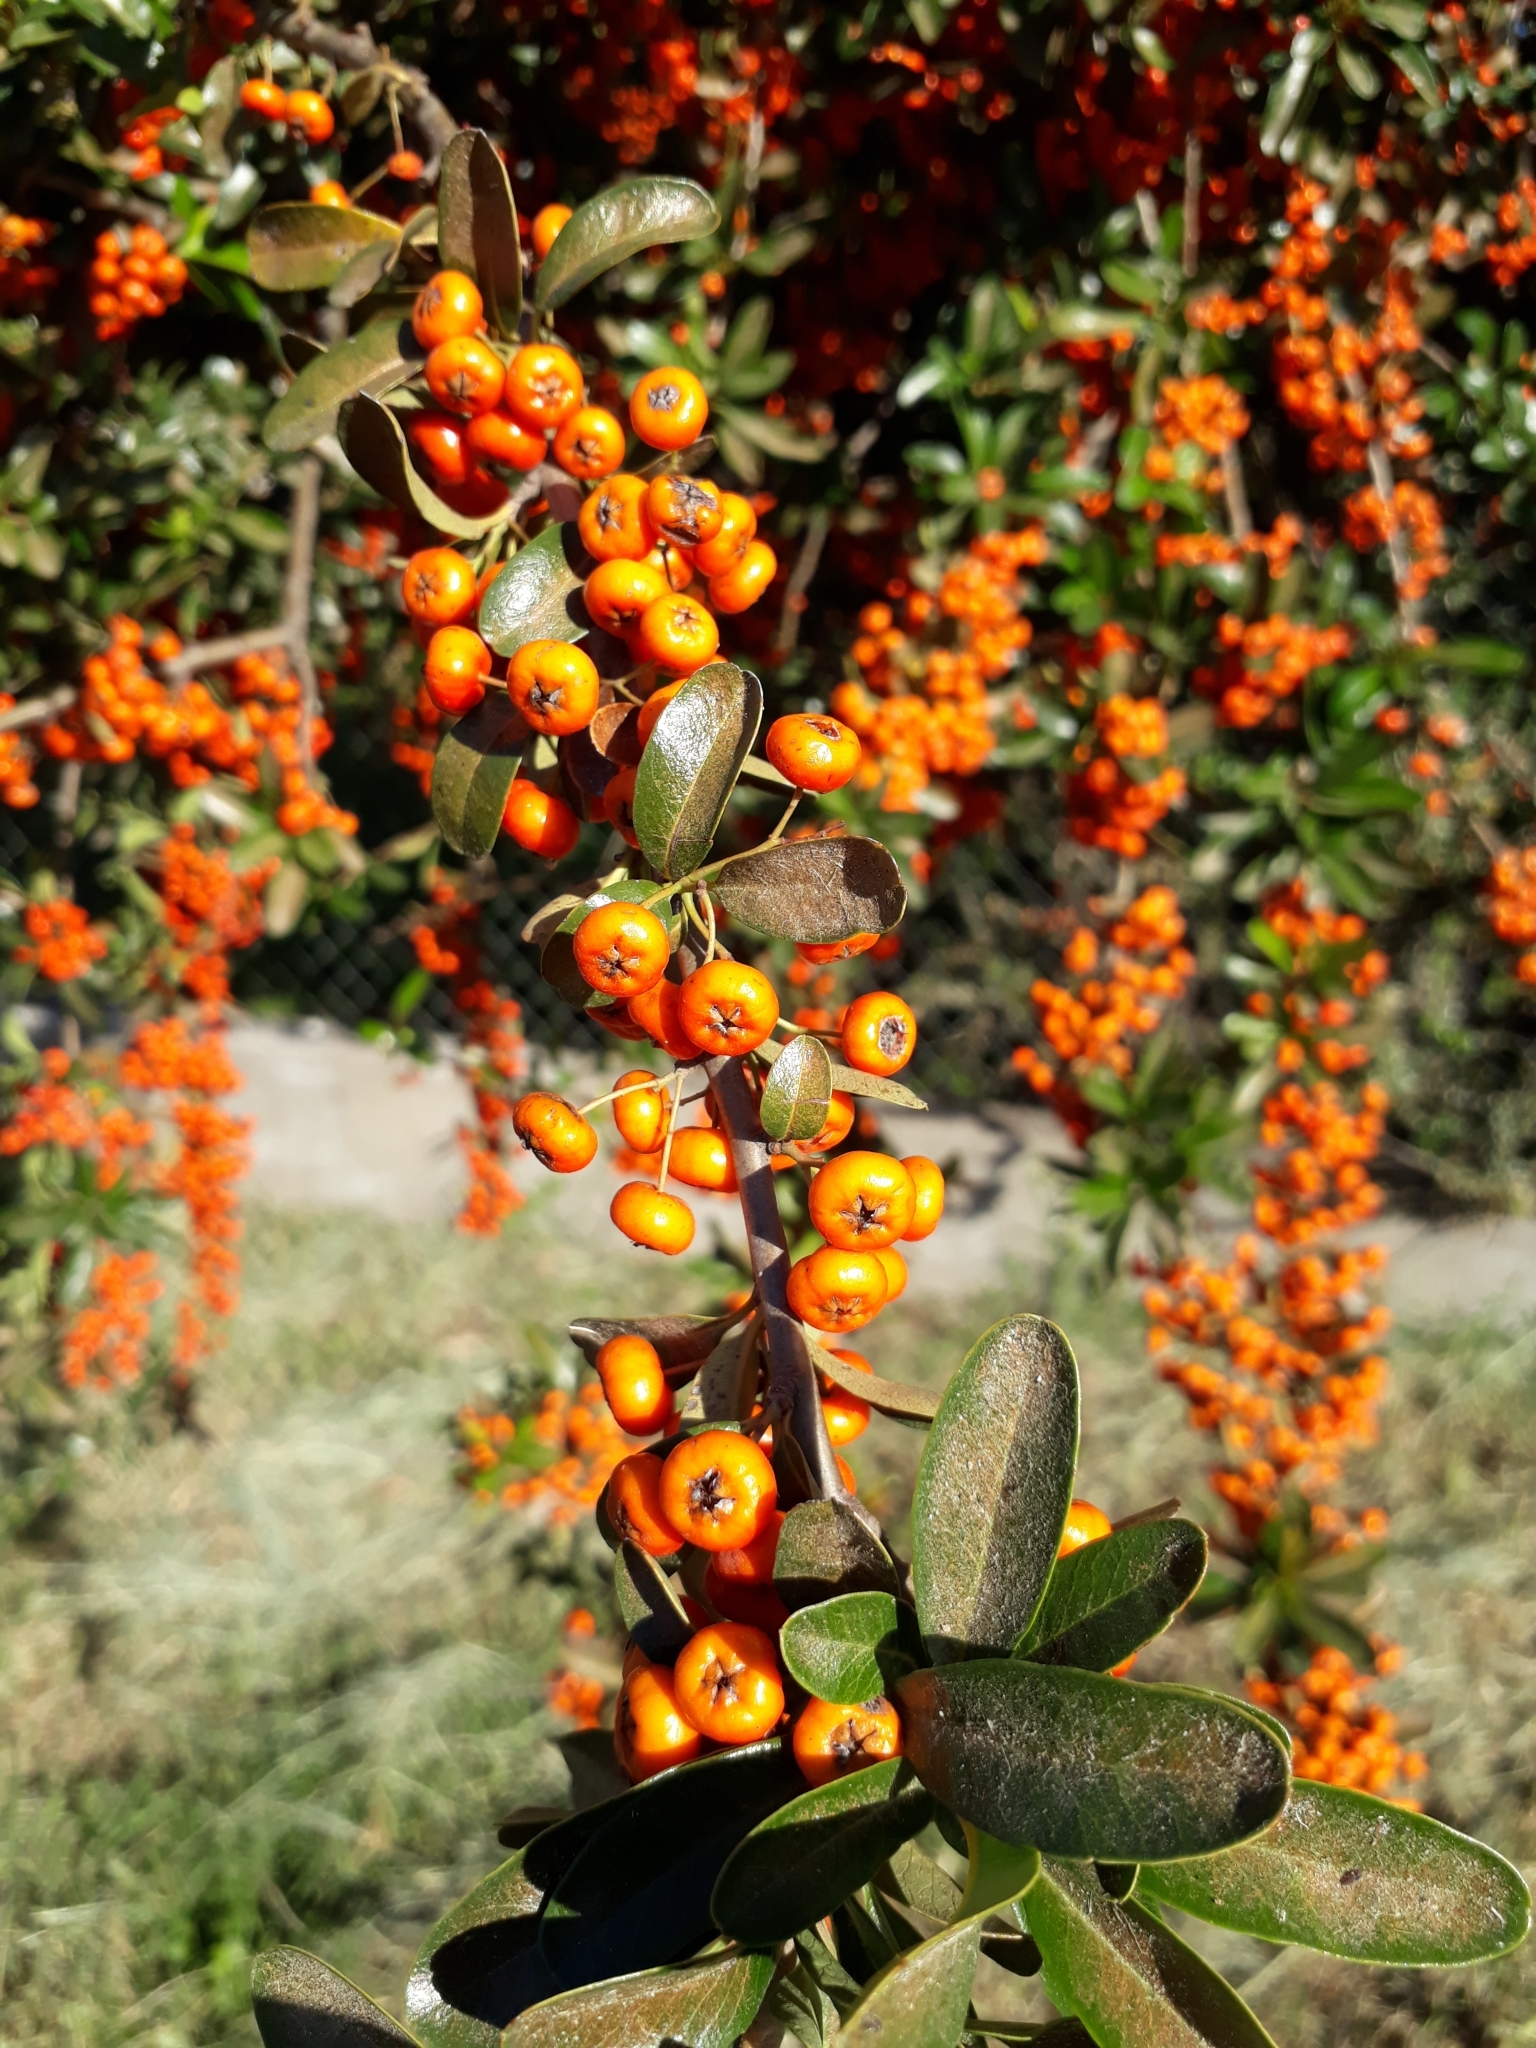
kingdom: Plantae
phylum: Tracheophyta
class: Magnoliopsida
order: Rosales
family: Rosaceae
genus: Pyracantha
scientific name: Pyracantha coccinea
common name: Firethorn
